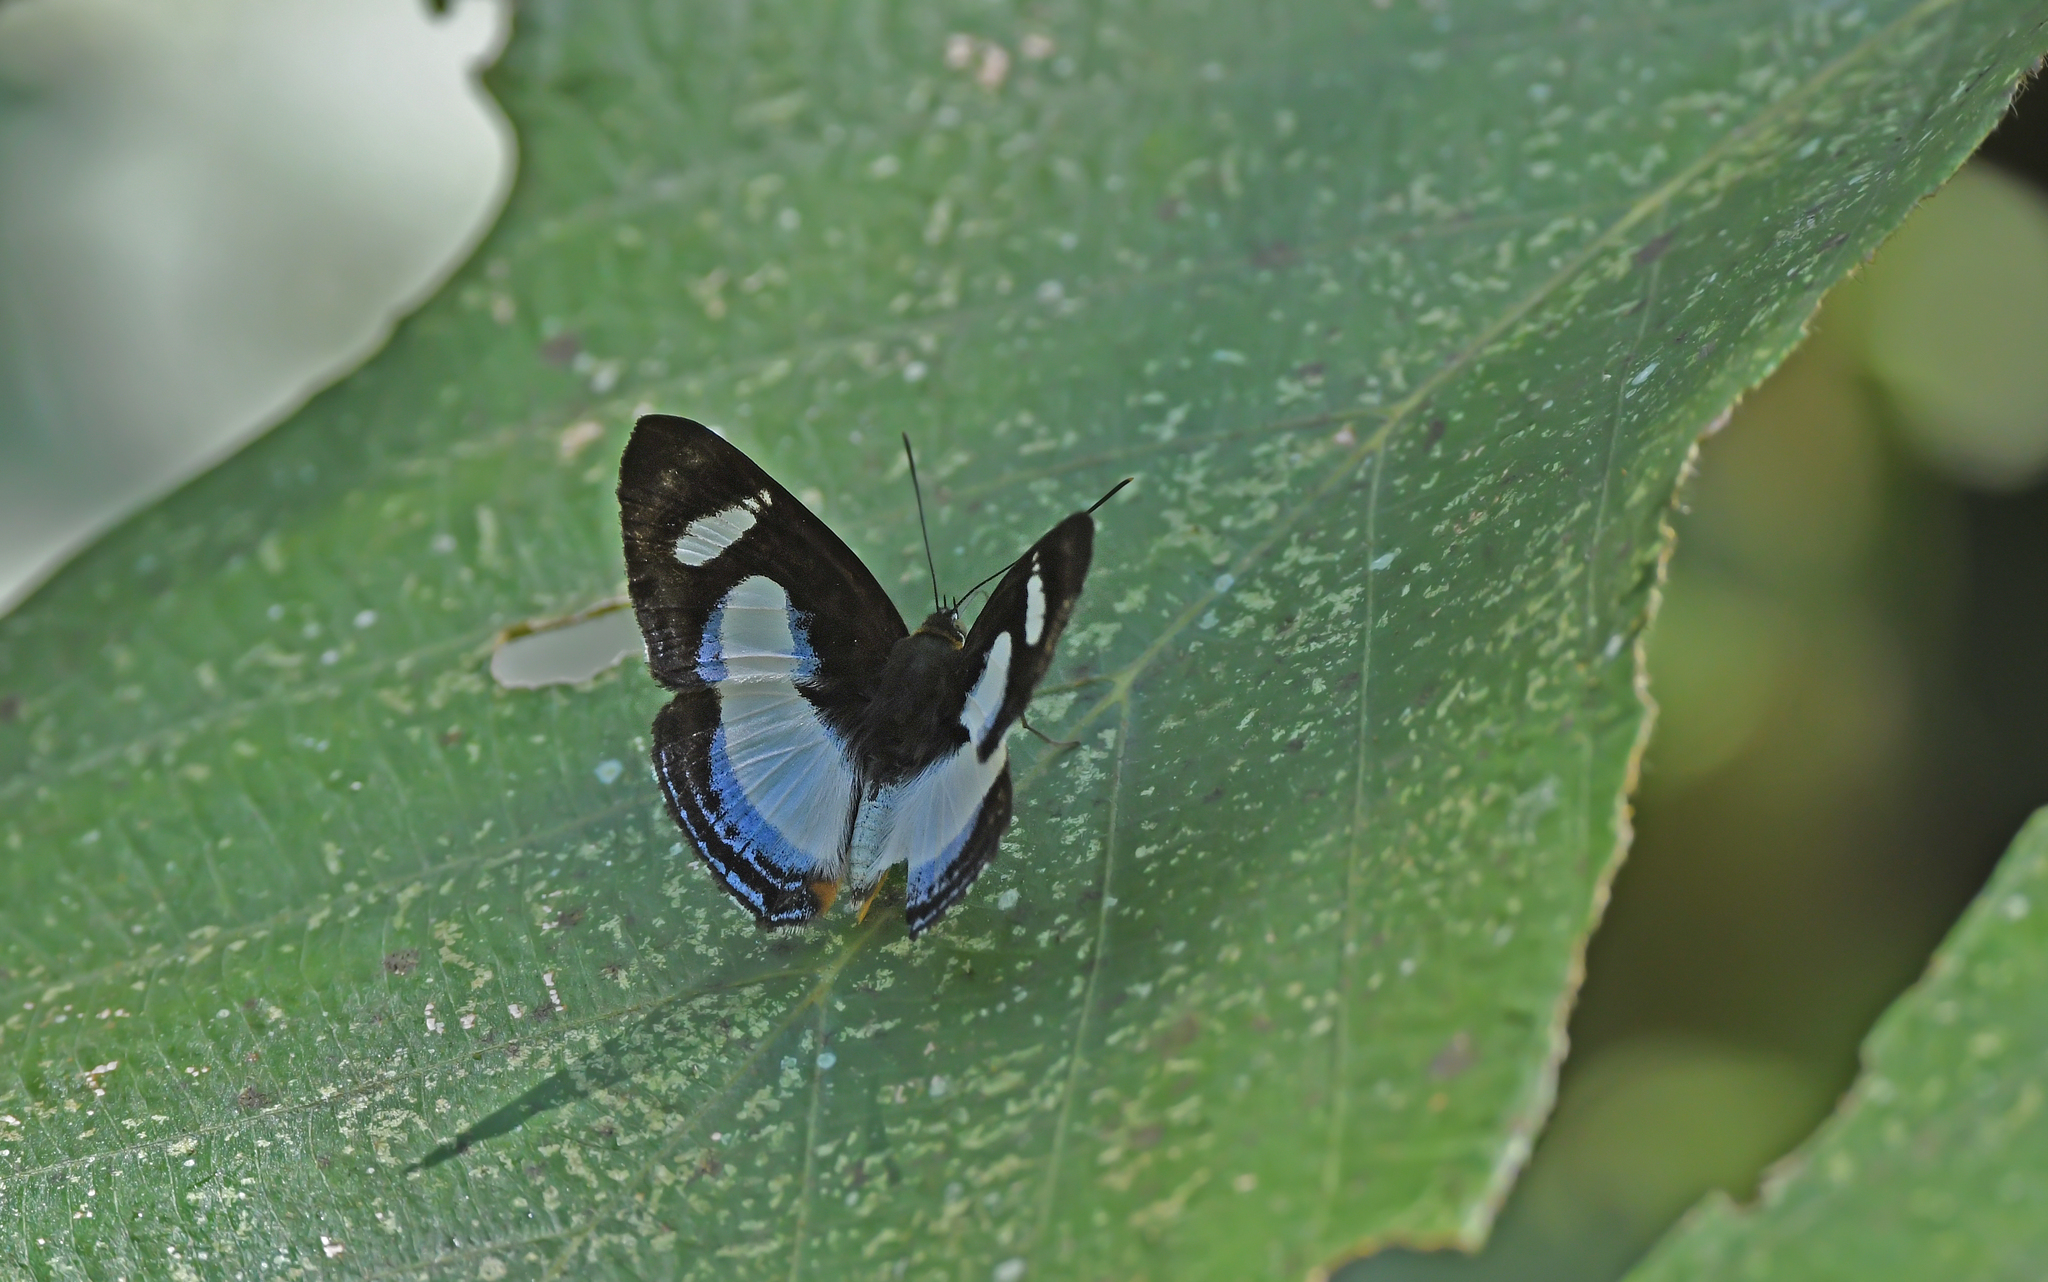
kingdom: Animalia
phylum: Arthropoda
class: Insecta
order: Lepidoptera
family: Riodinidae
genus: Thisbe
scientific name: Thisbe irenea
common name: Irenia metalmark
